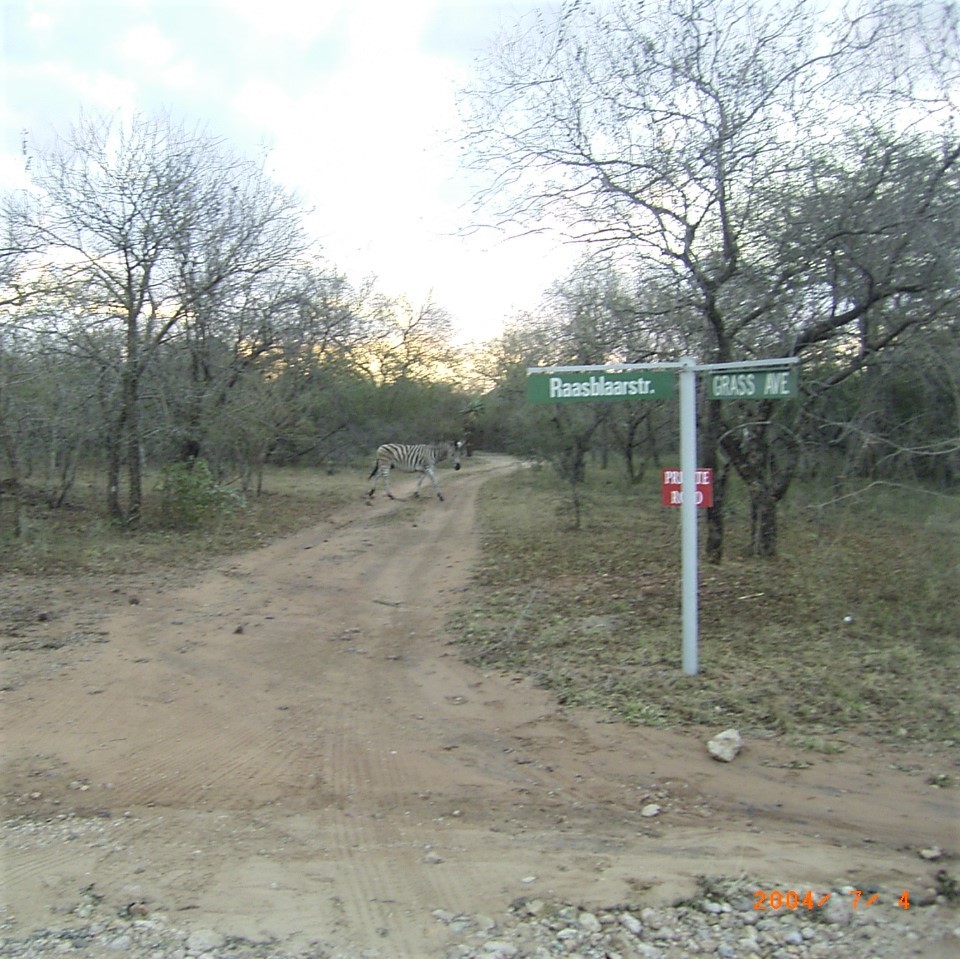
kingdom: Animalia
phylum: Chordata
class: Mammalia
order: Perissodactyla
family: Equidae
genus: Equus
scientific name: Equus quagga
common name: Plains zebra
